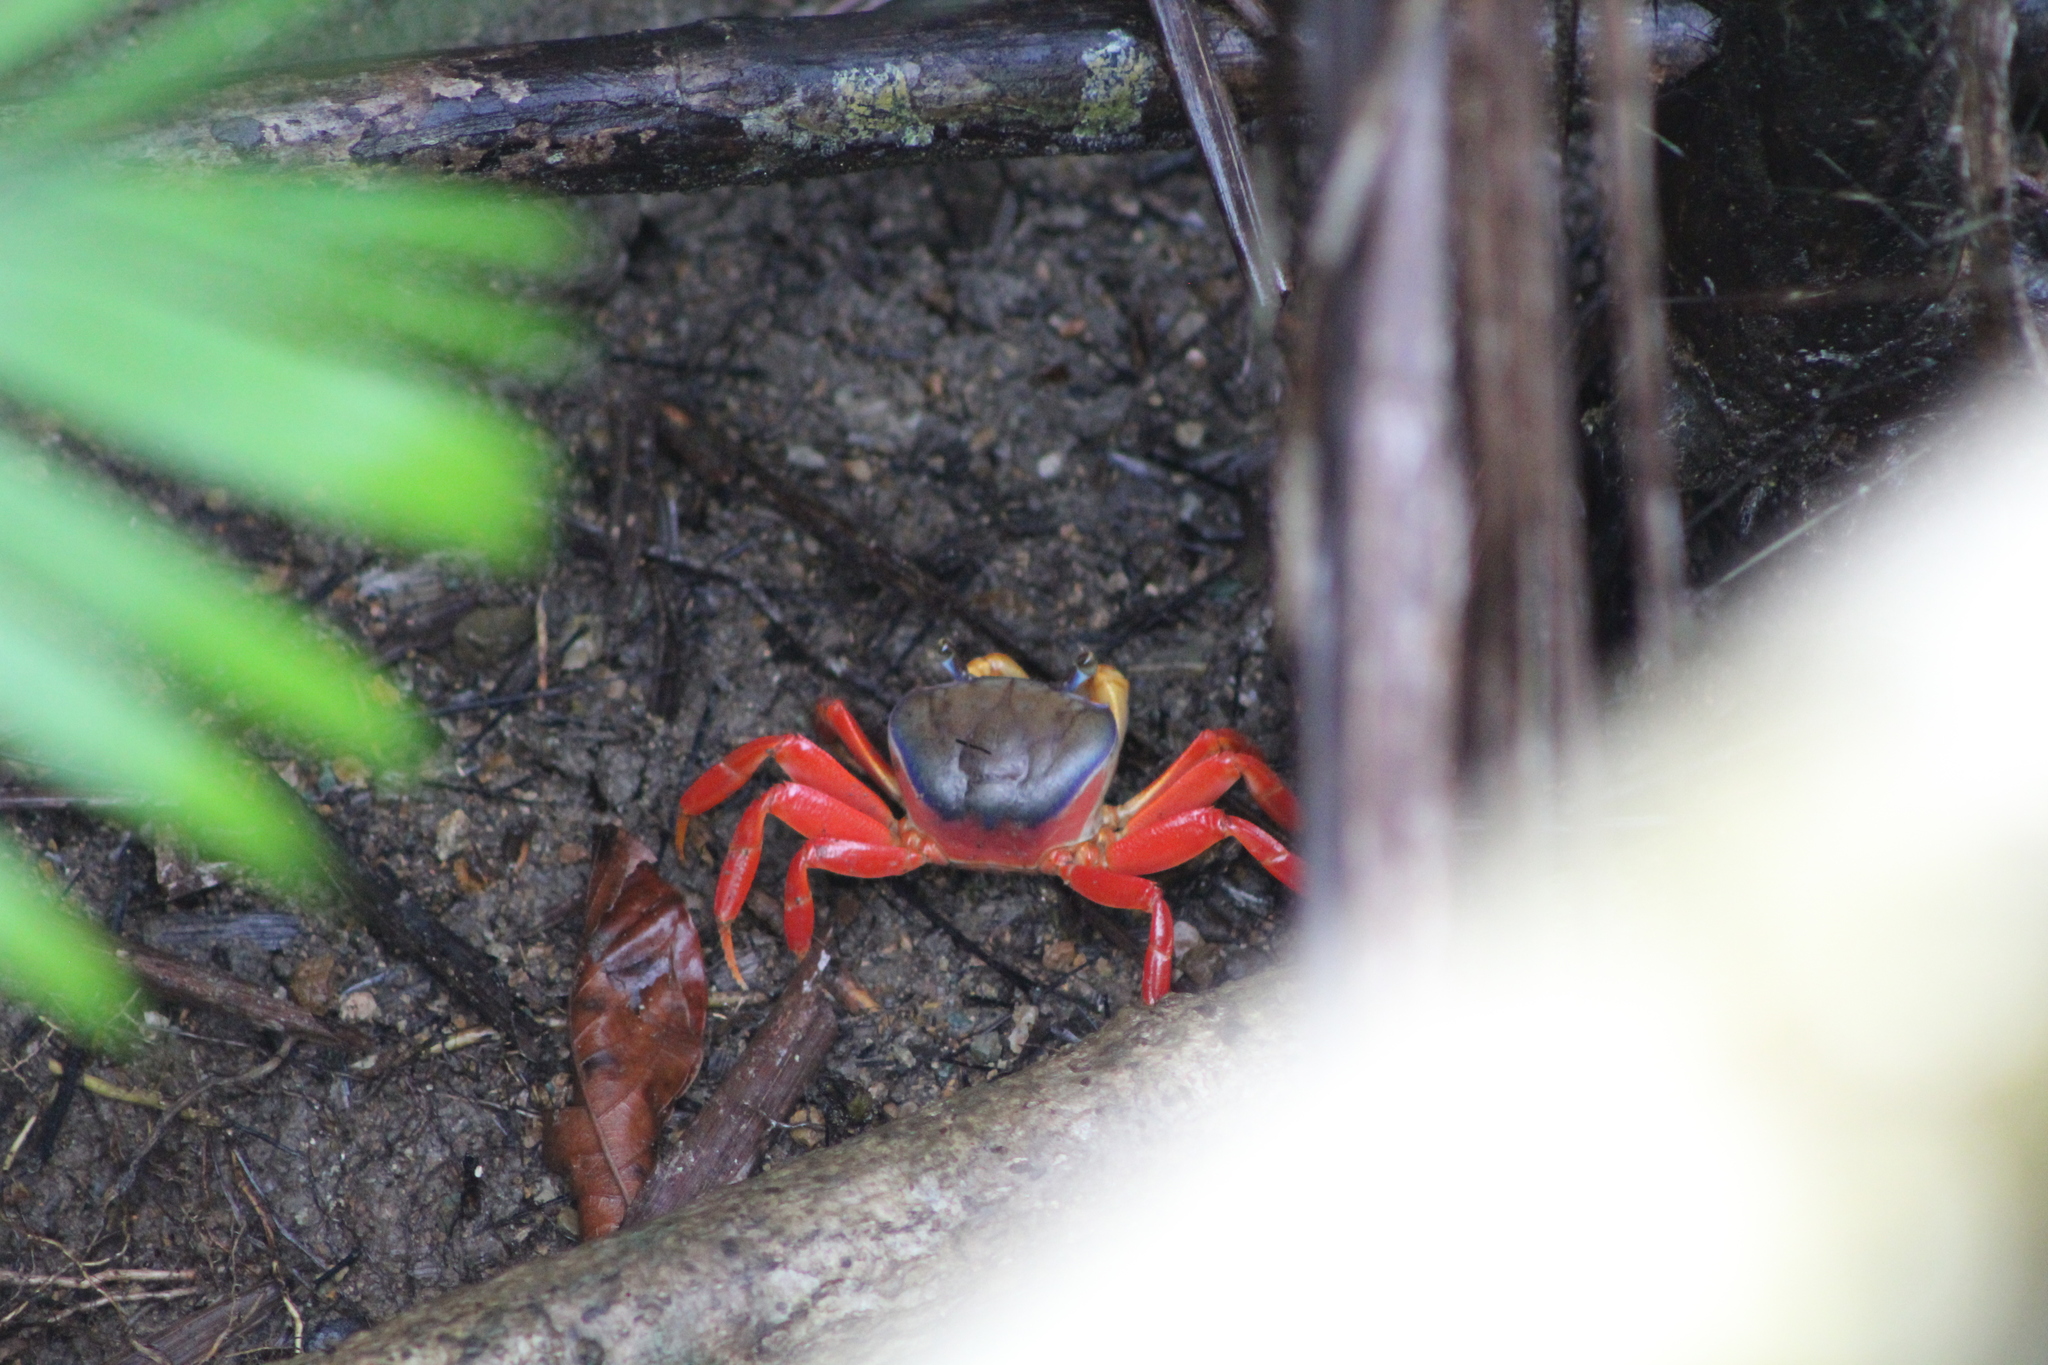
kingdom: Animalia
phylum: Arthropoda
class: Malacostraca
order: Decapoda
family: Gecarcinidae
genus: Cardisoma
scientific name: Cardisoma crassum
